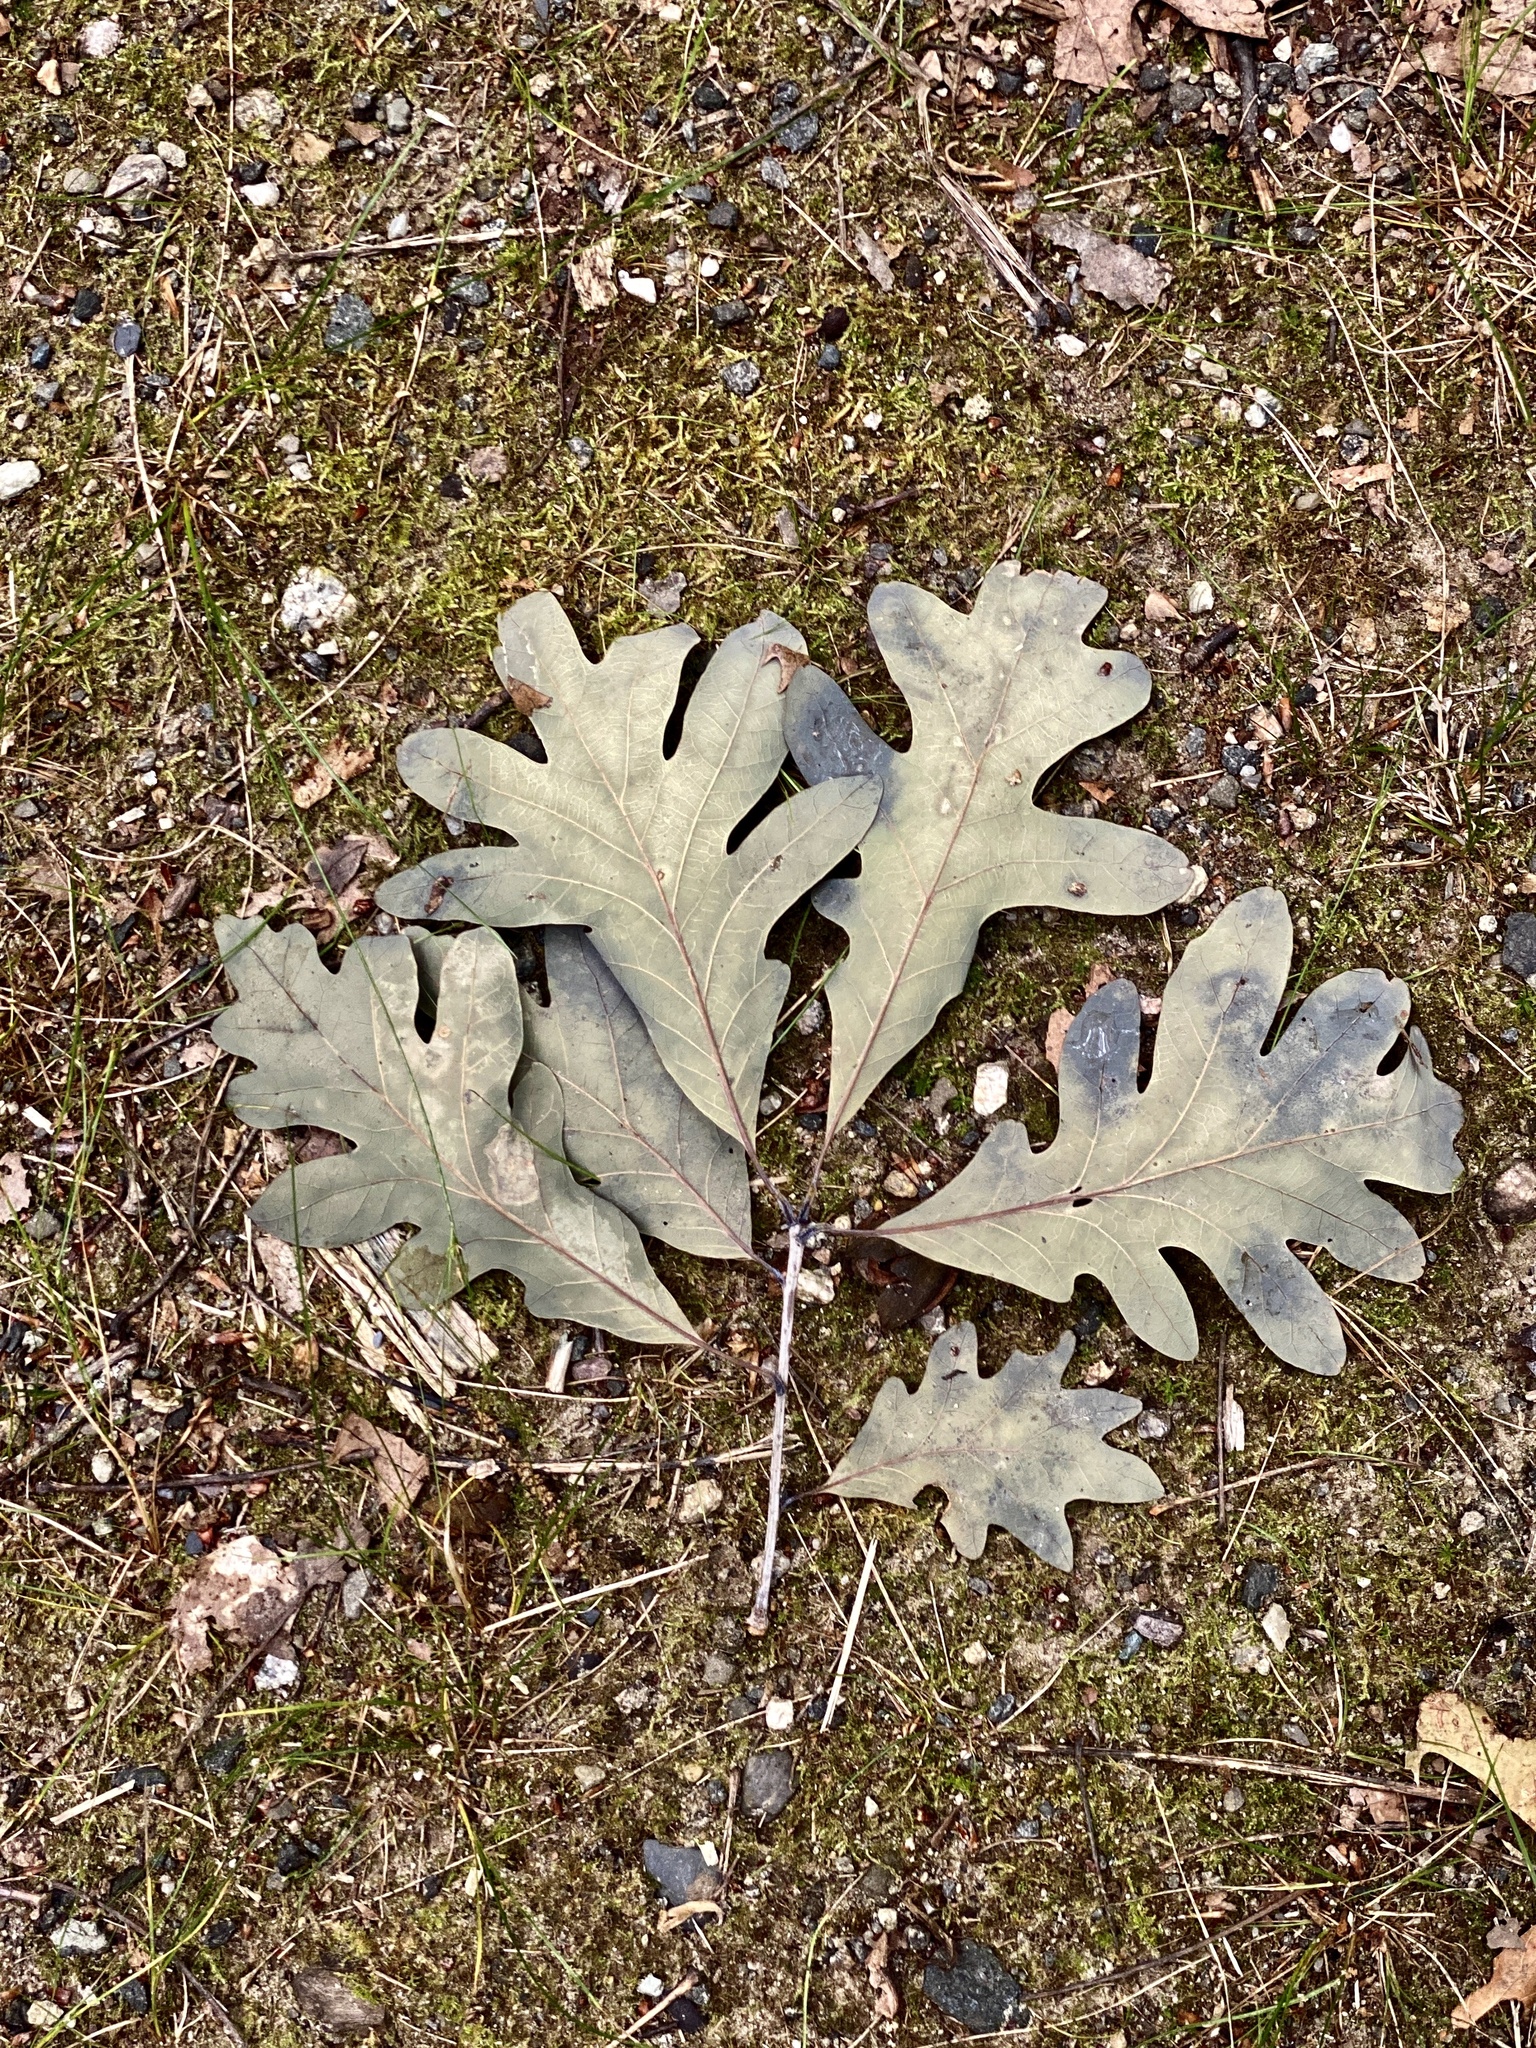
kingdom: Plantae
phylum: Tracheophyta
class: Magnoliopsida
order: Fagales
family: Fagaceae
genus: Quercus
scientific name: Quercus alba
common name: White oak
